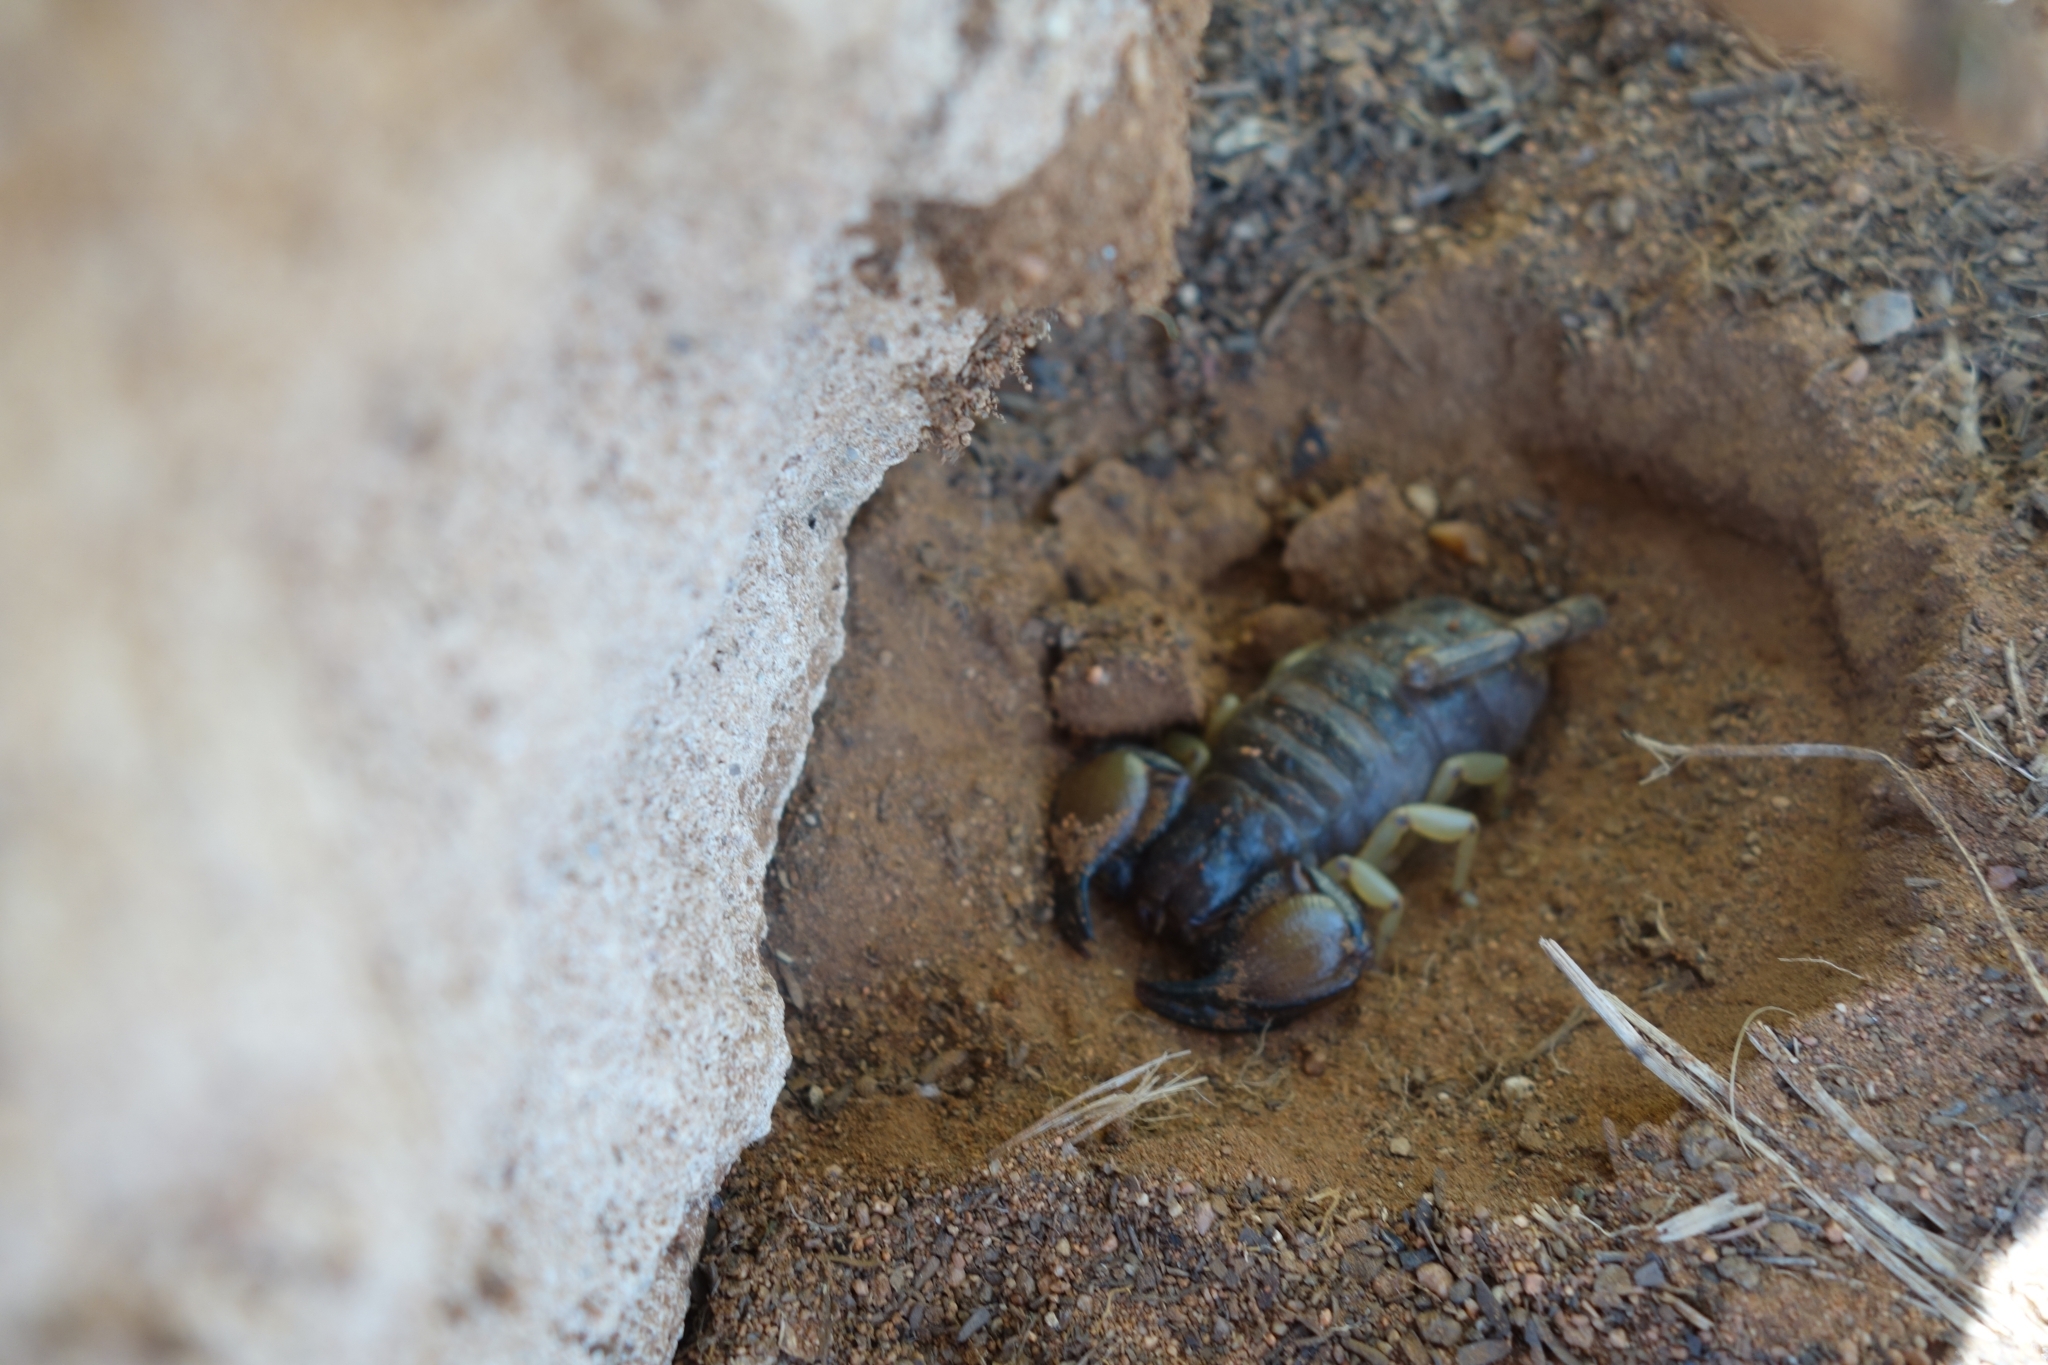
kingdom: Animalia
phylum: Arthropoda
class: Arachnida
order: Scorpiones
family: Scorpionidae
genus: Opistophthalmus
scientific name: Opistophthalmus carinatus
